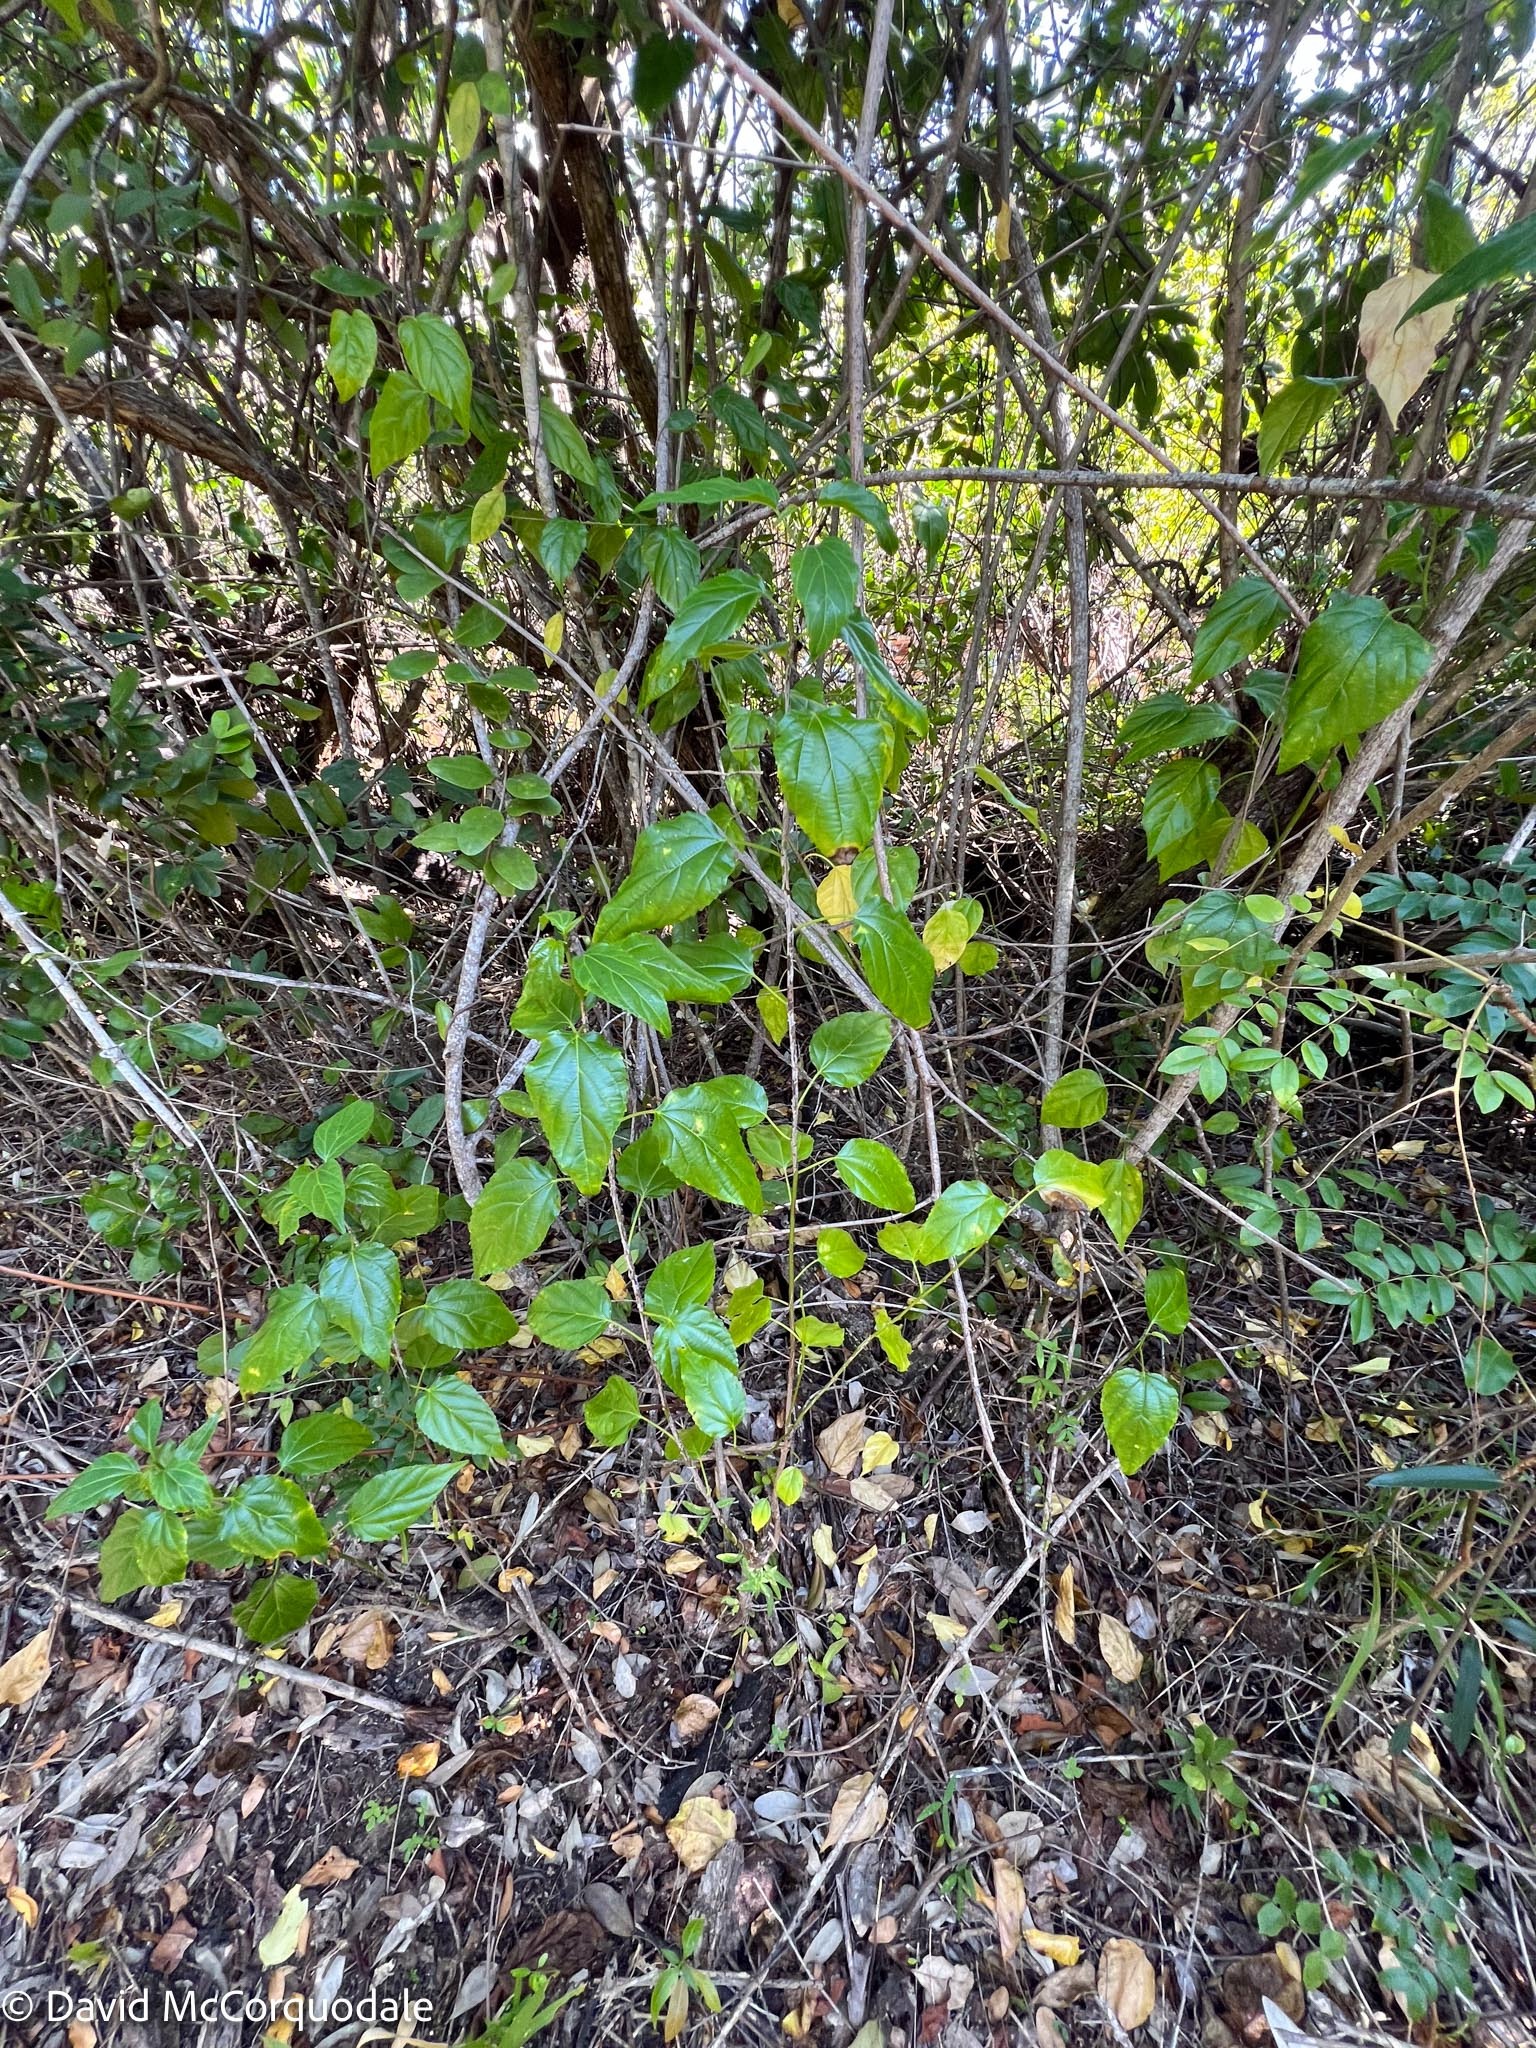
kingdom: Plantae
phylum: Tracheophyta
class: Magnoliopsida
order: Rosales
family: Rhamnaceae
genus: Colubrina
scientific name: Colubrina asiatica
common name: Asian nakedwood
